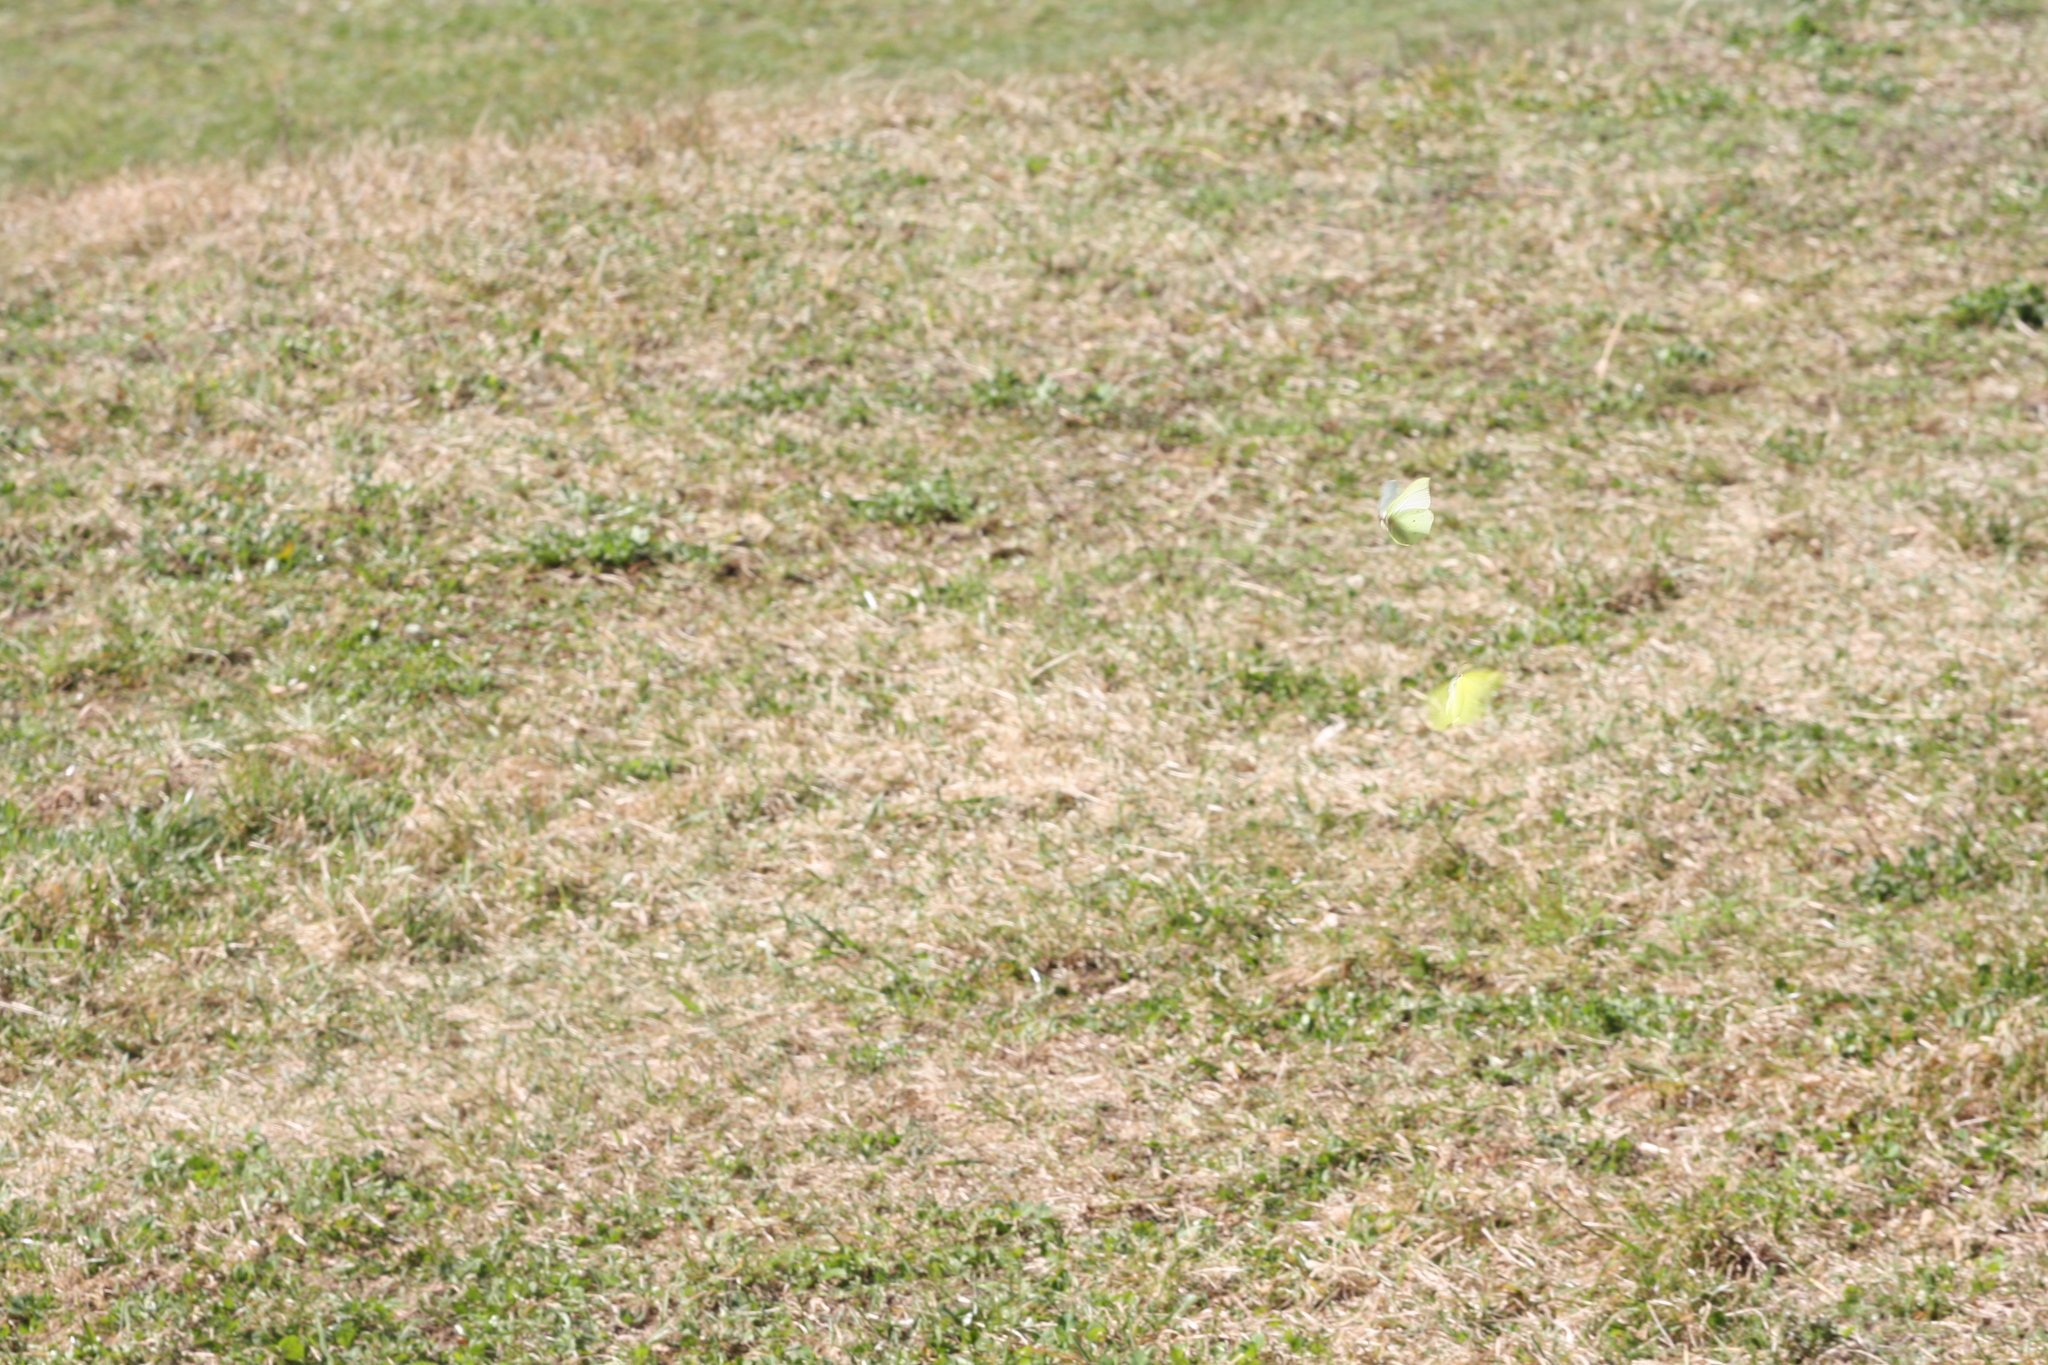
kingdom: Animalia
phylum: Arthropoda
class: Insecta
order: Lepidoptera
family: Pieridae
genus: Gonepteryx
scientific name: Gonepteryx rhamni
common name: Brimstone
